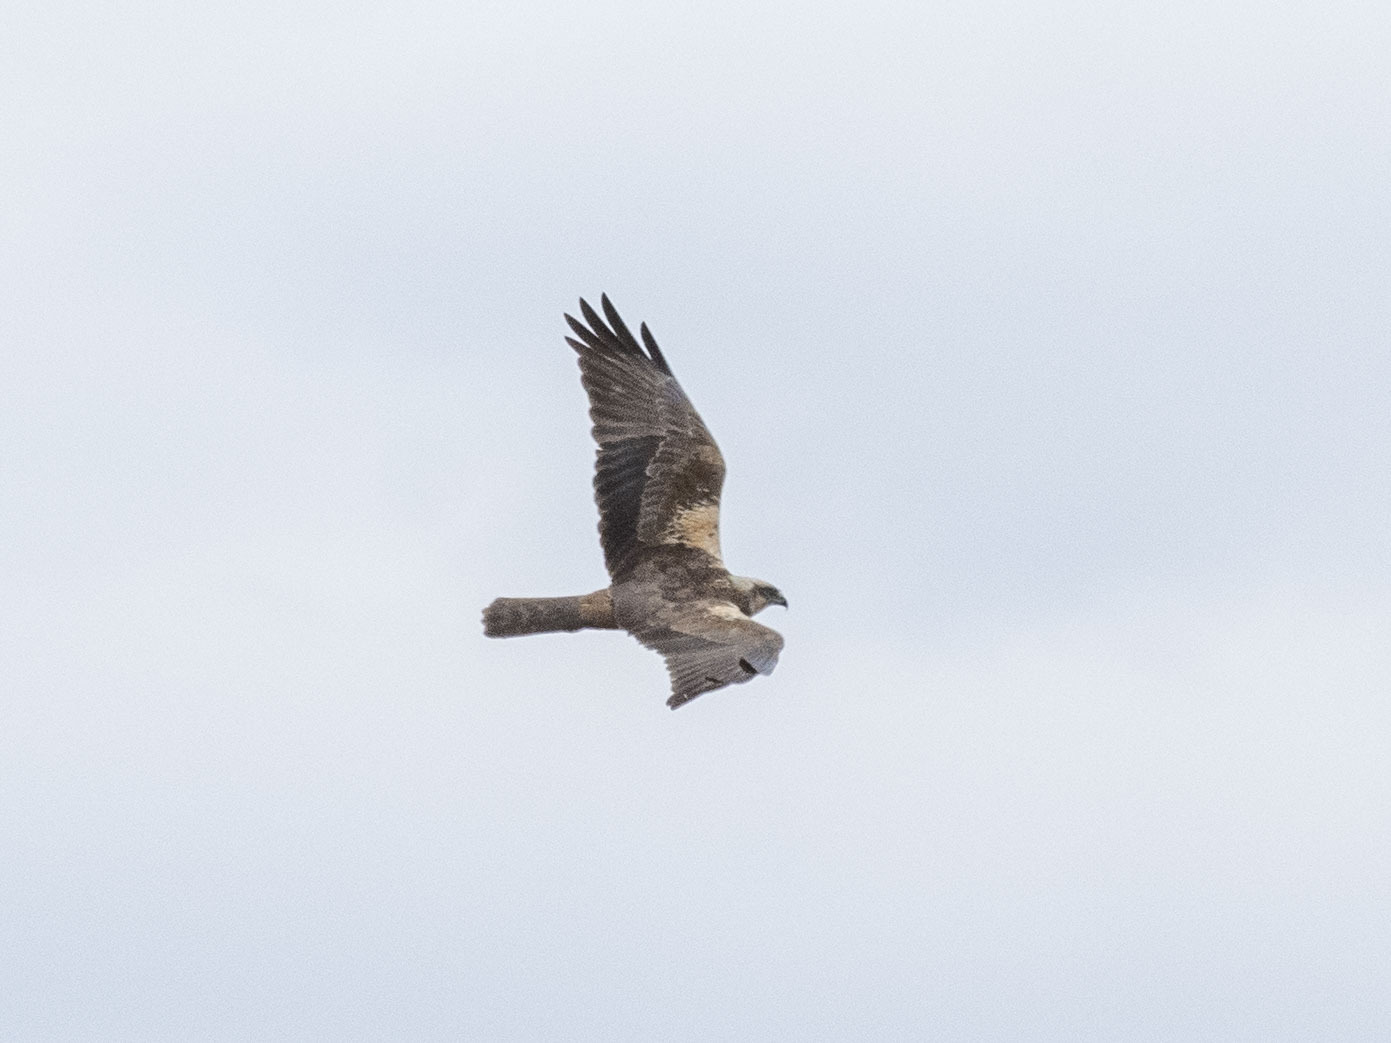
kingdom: Animalia
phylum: Chordata
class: Aves
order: Accipitriformes
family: Accipitridae
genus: Circus
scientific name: Circus aeruginosus
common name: Western marsh harrier
